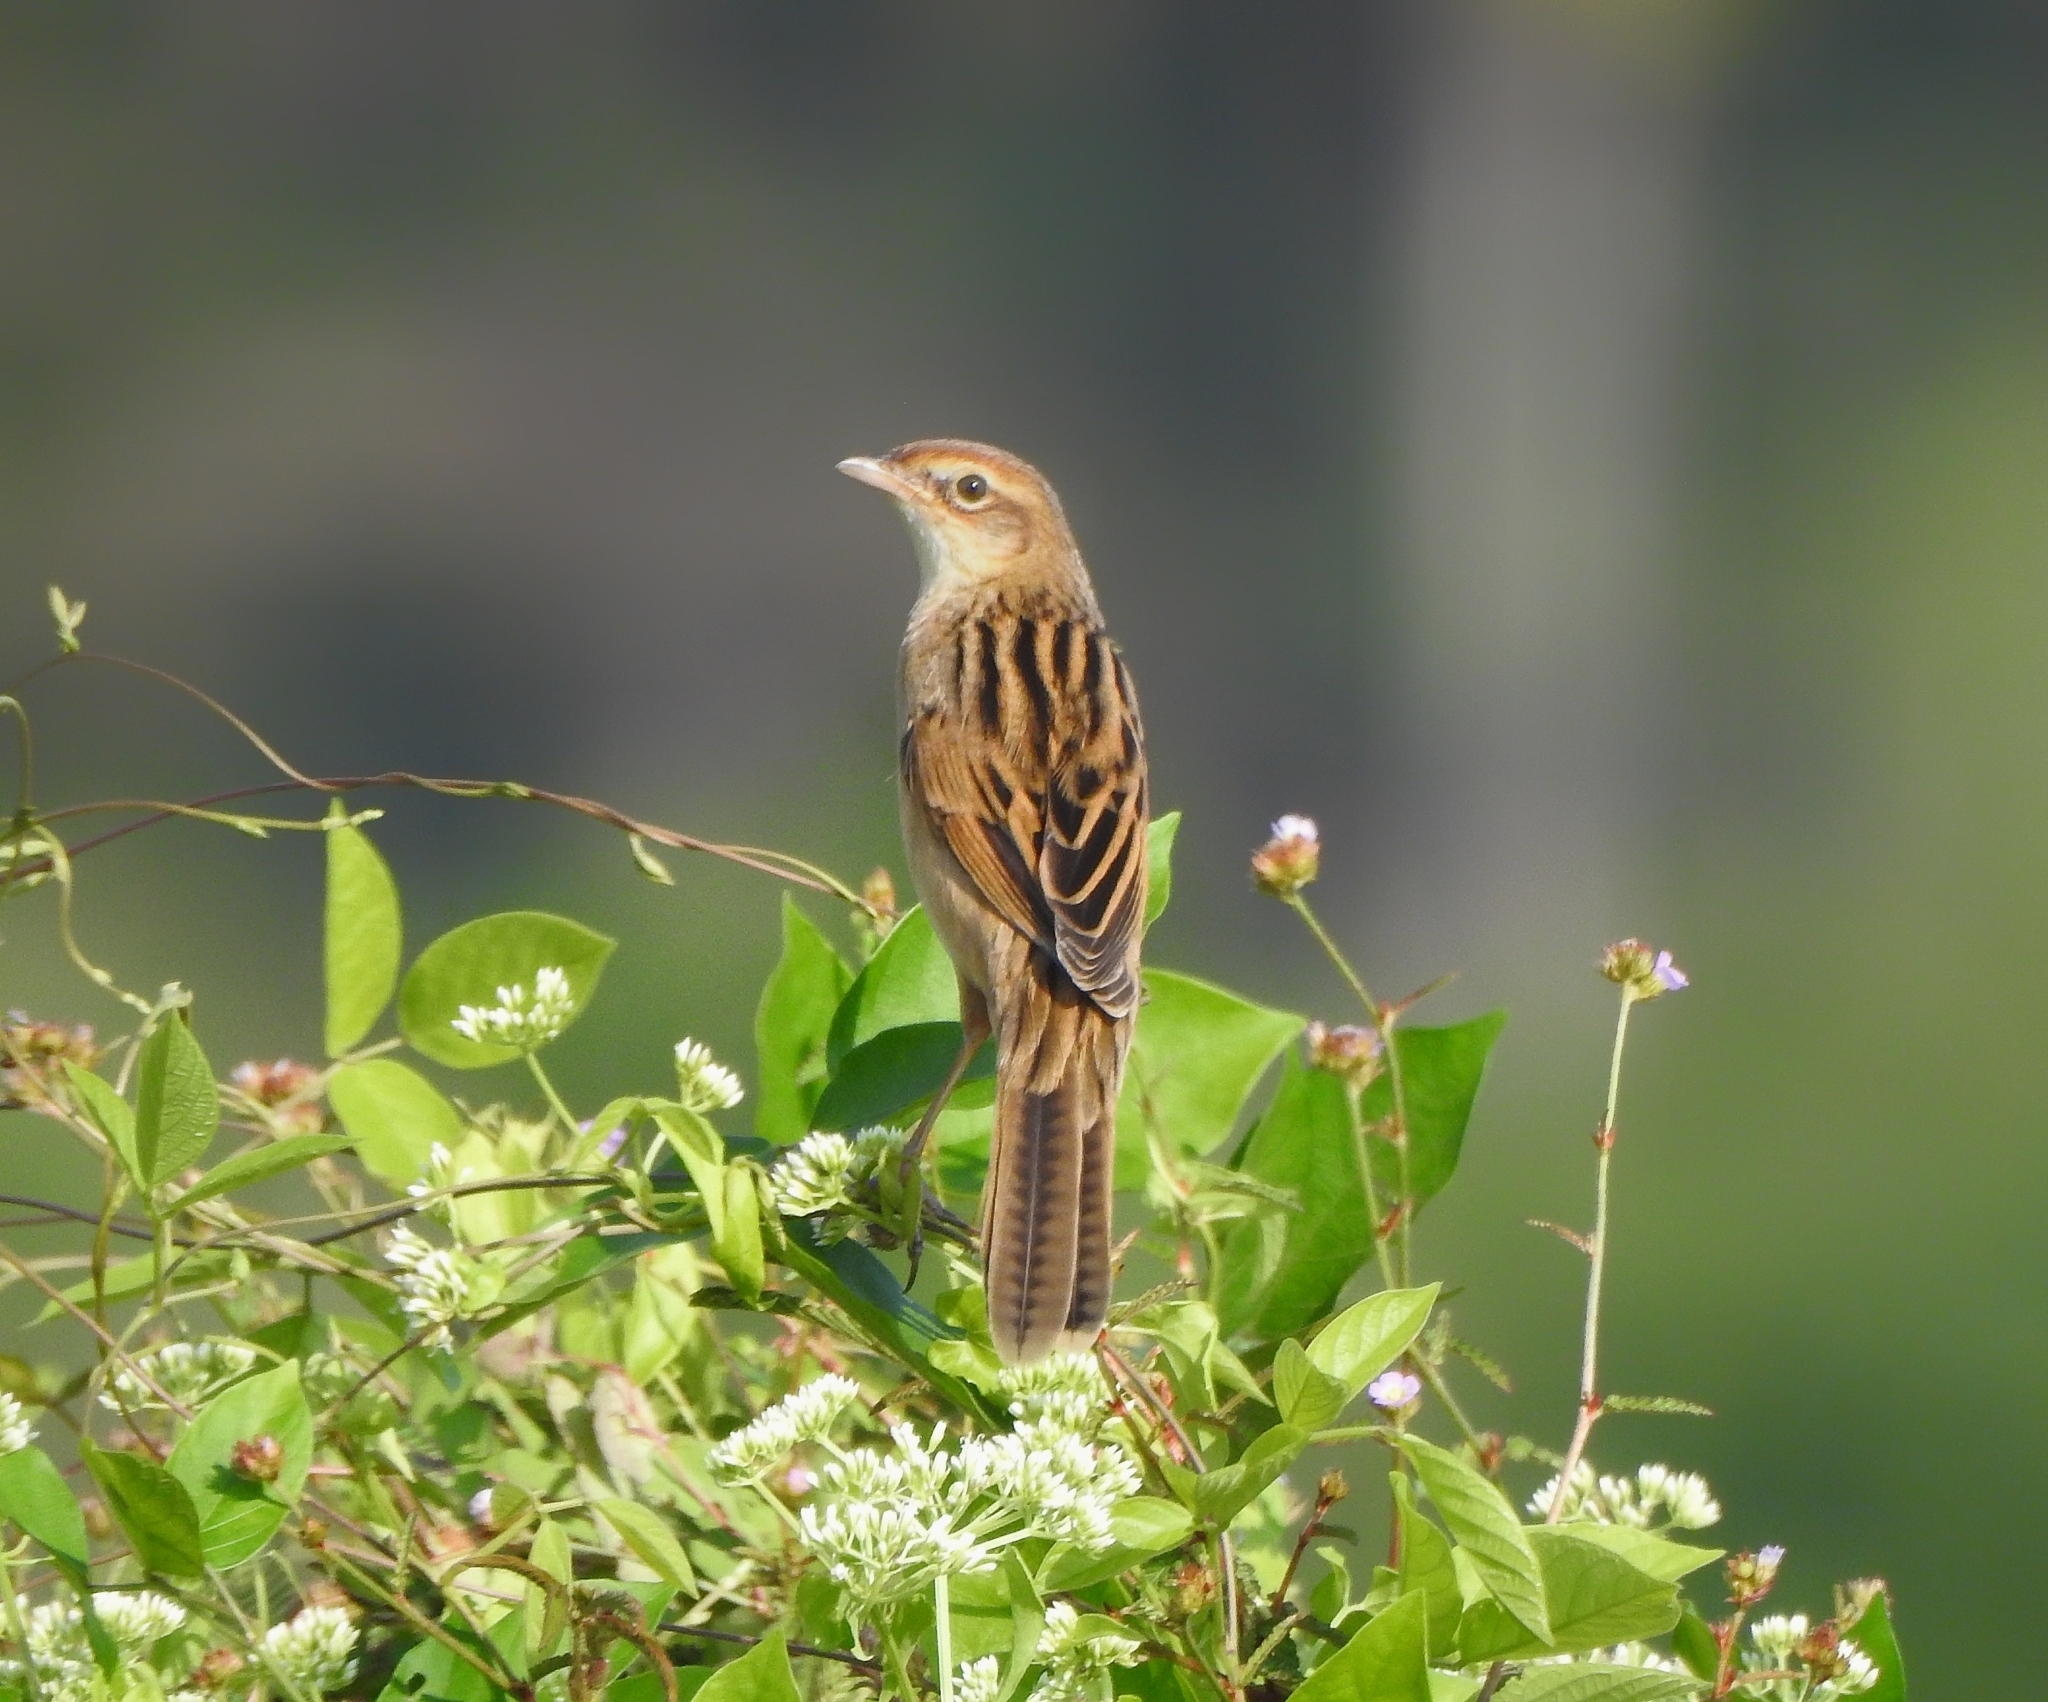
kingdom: Animalia
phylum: Chordata
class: Aves
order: Passeriformes
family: Locustellidae
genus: Chaetornis
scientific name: Chaetornis striata
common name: Bristled grassbird
